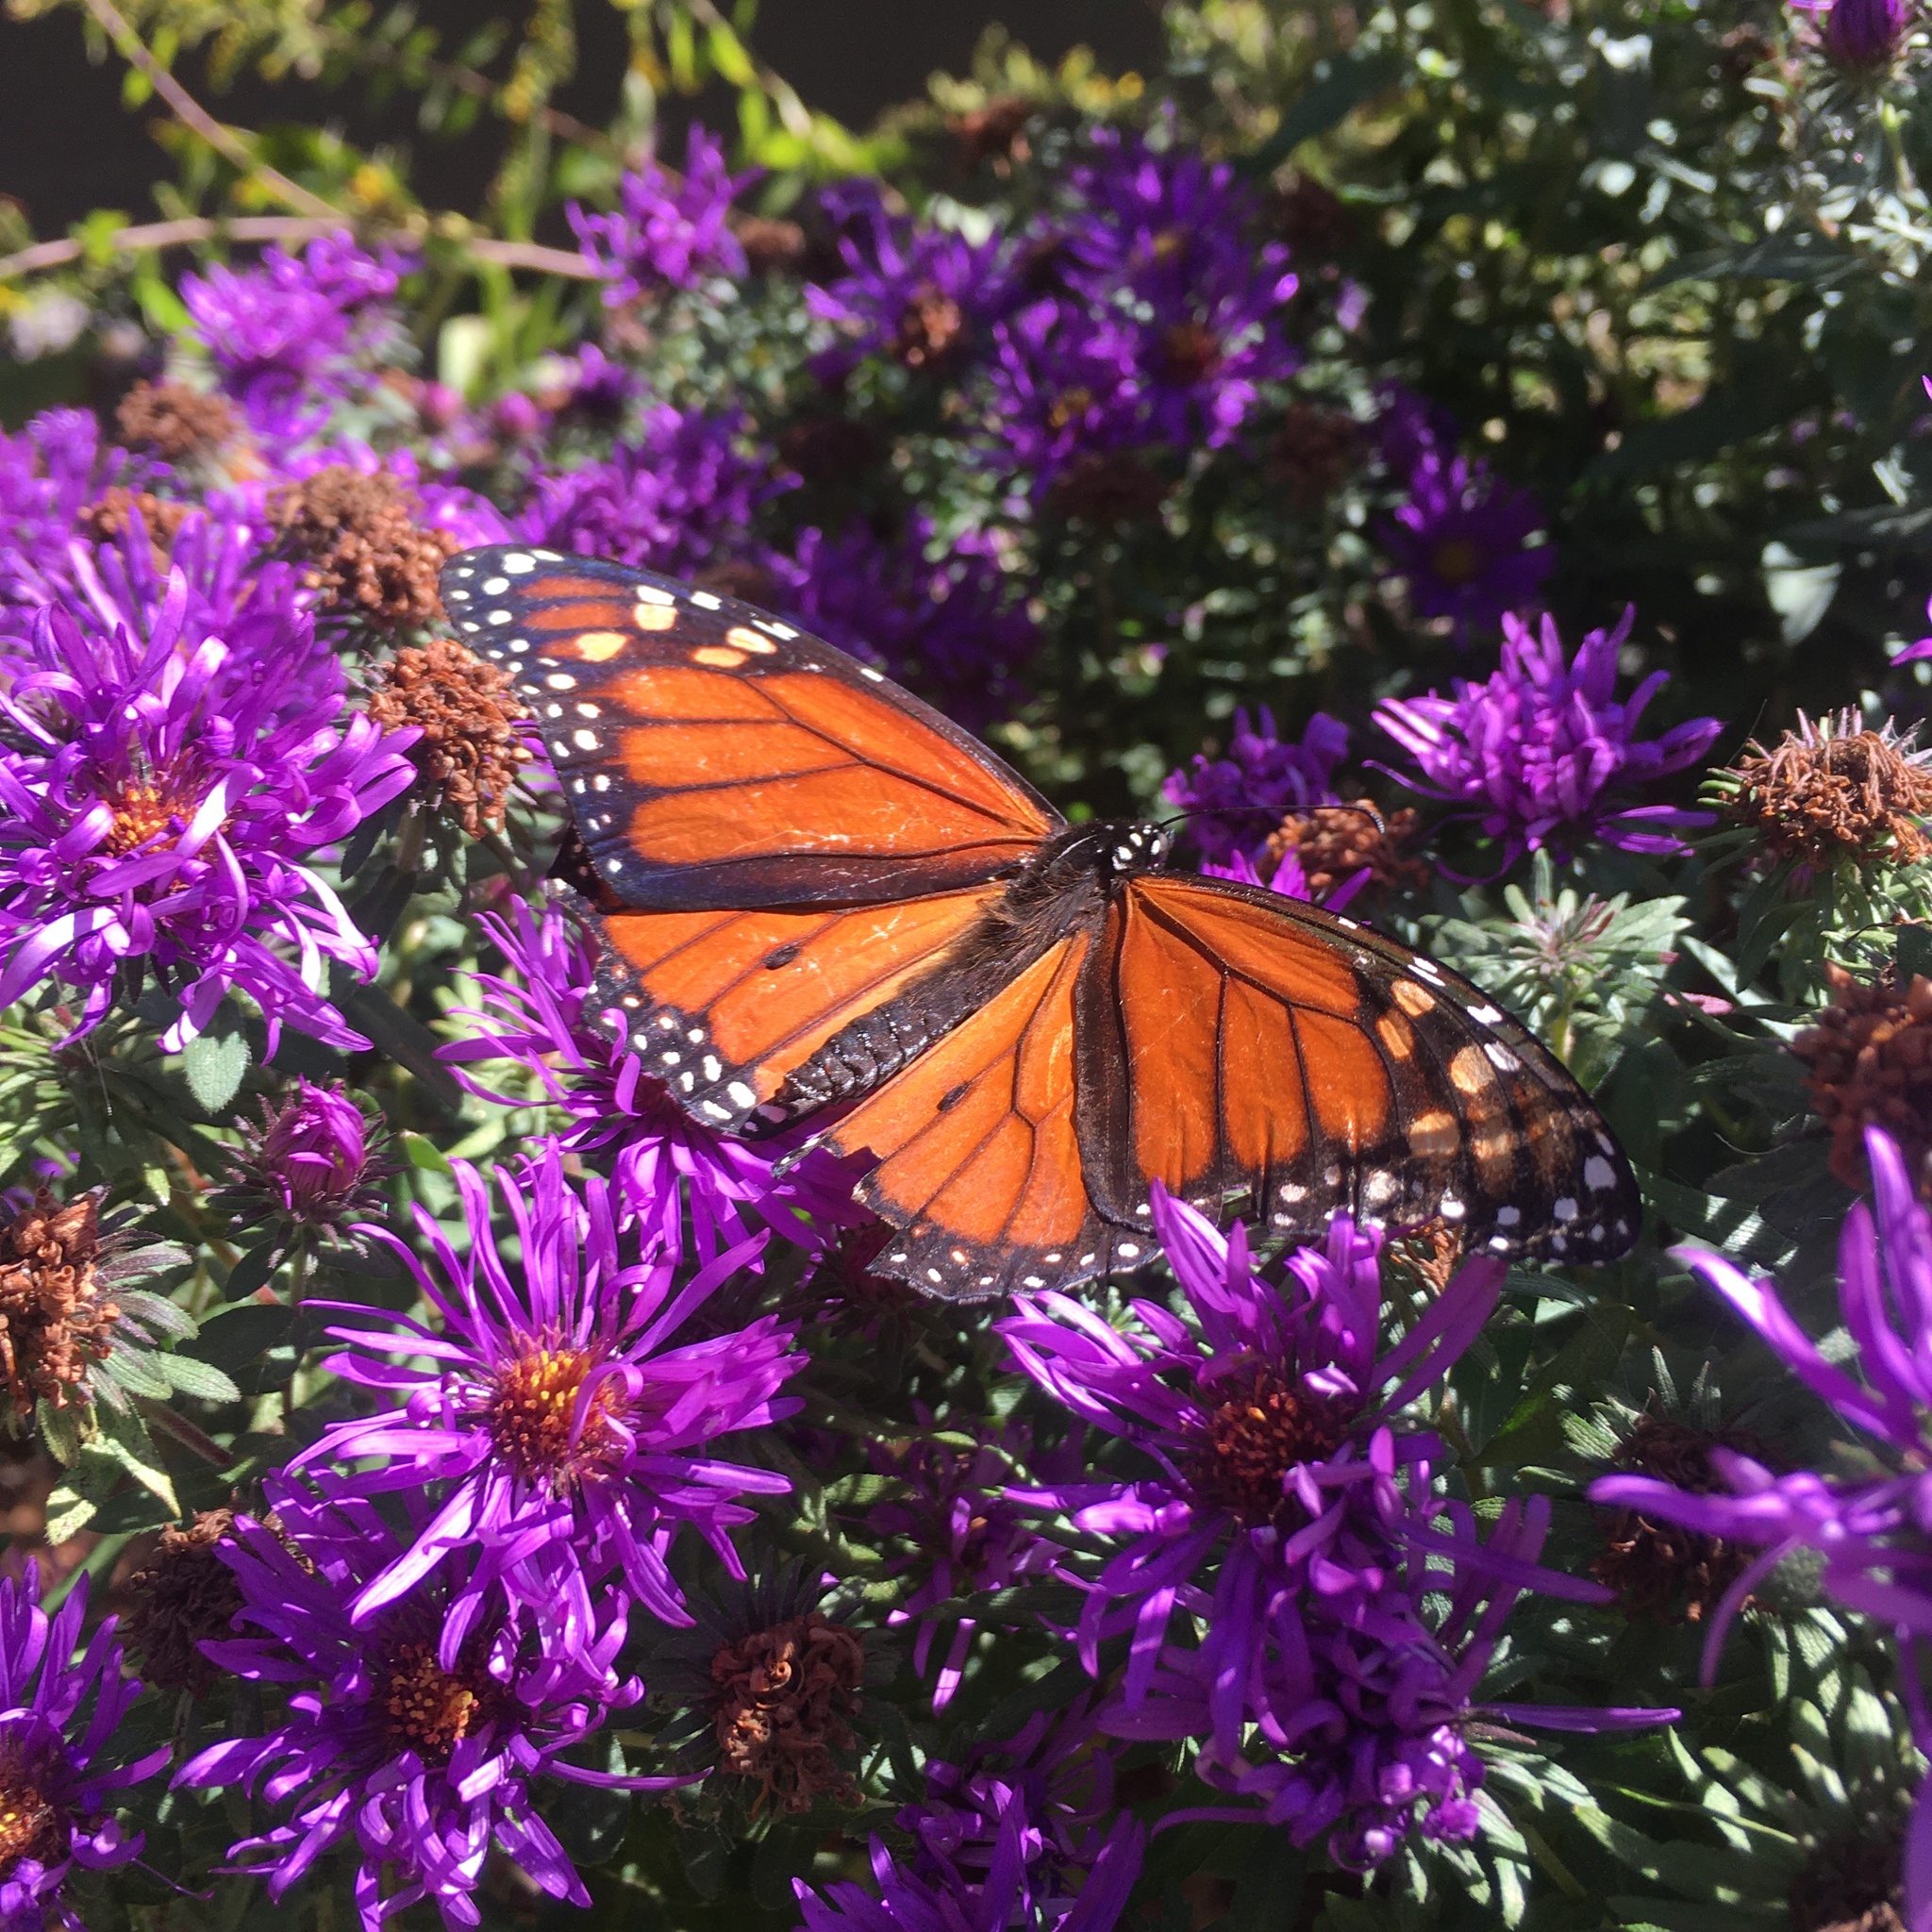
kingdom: Animalia
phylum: Arthropoda
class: Insecta
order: Lepidoptera
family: Nymphalidae
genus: Danaus
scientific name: Danaus plexippus
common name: Monarch
